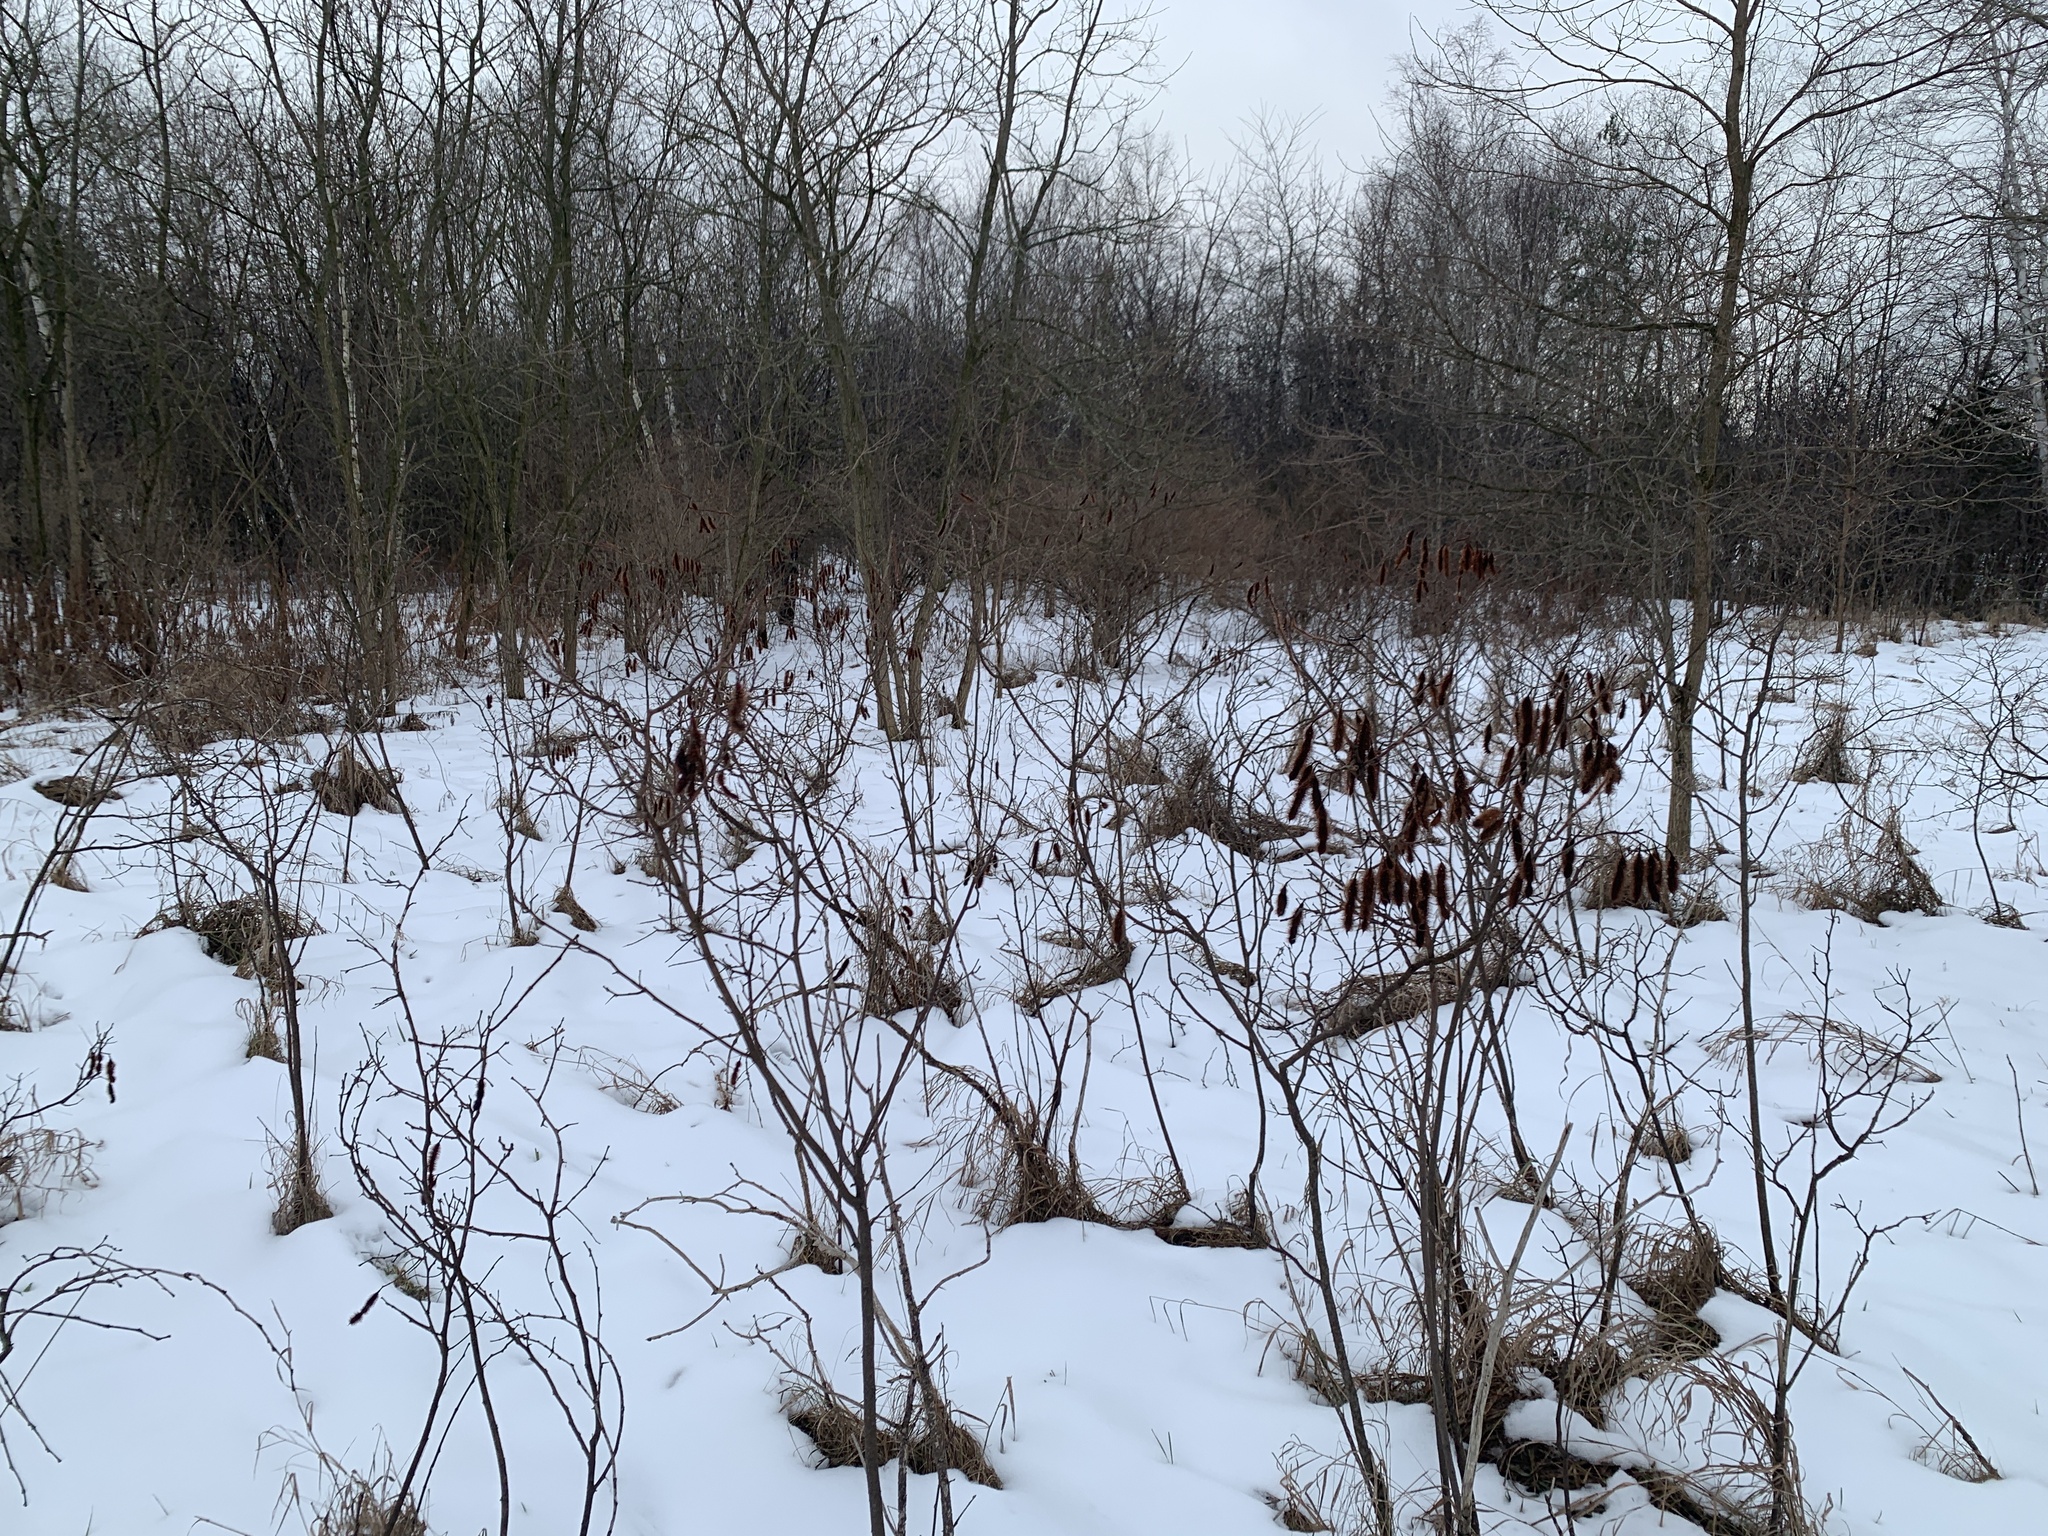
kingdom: Plantae
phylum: Tracheophyta
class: Magnoliopsida
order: Fabales
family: Fabaceae
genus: Robinia
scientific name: Robinia hispida
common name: Bristly locust
